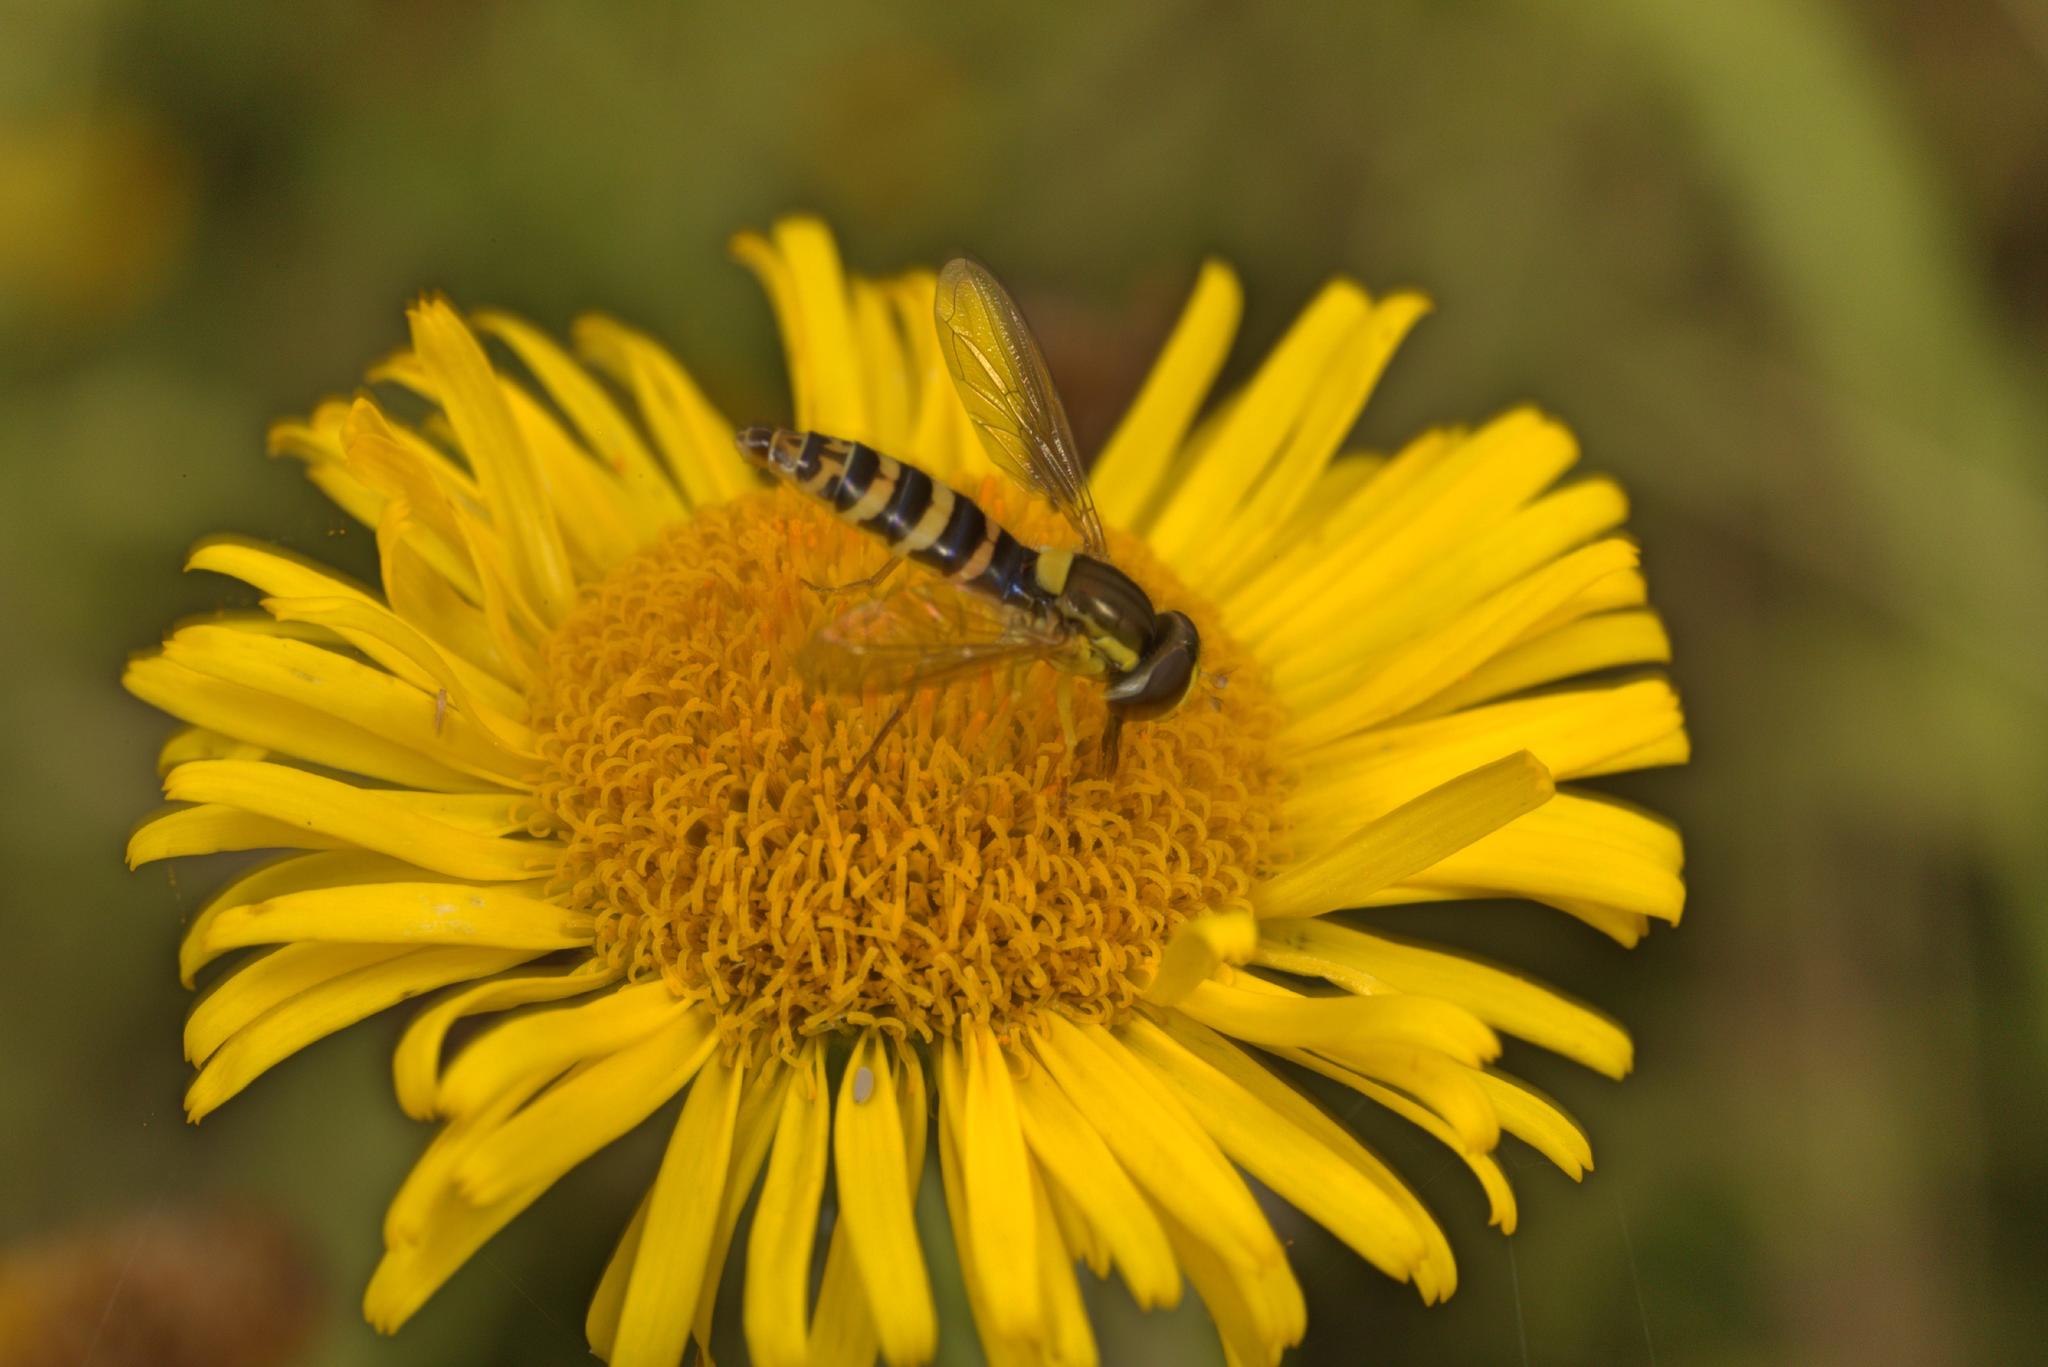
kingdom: Animalia
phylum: Arthropoda
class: Insecta
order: Diptera
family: Syrphidae
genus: Sphaerophoria
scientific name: Sphaerophoria
